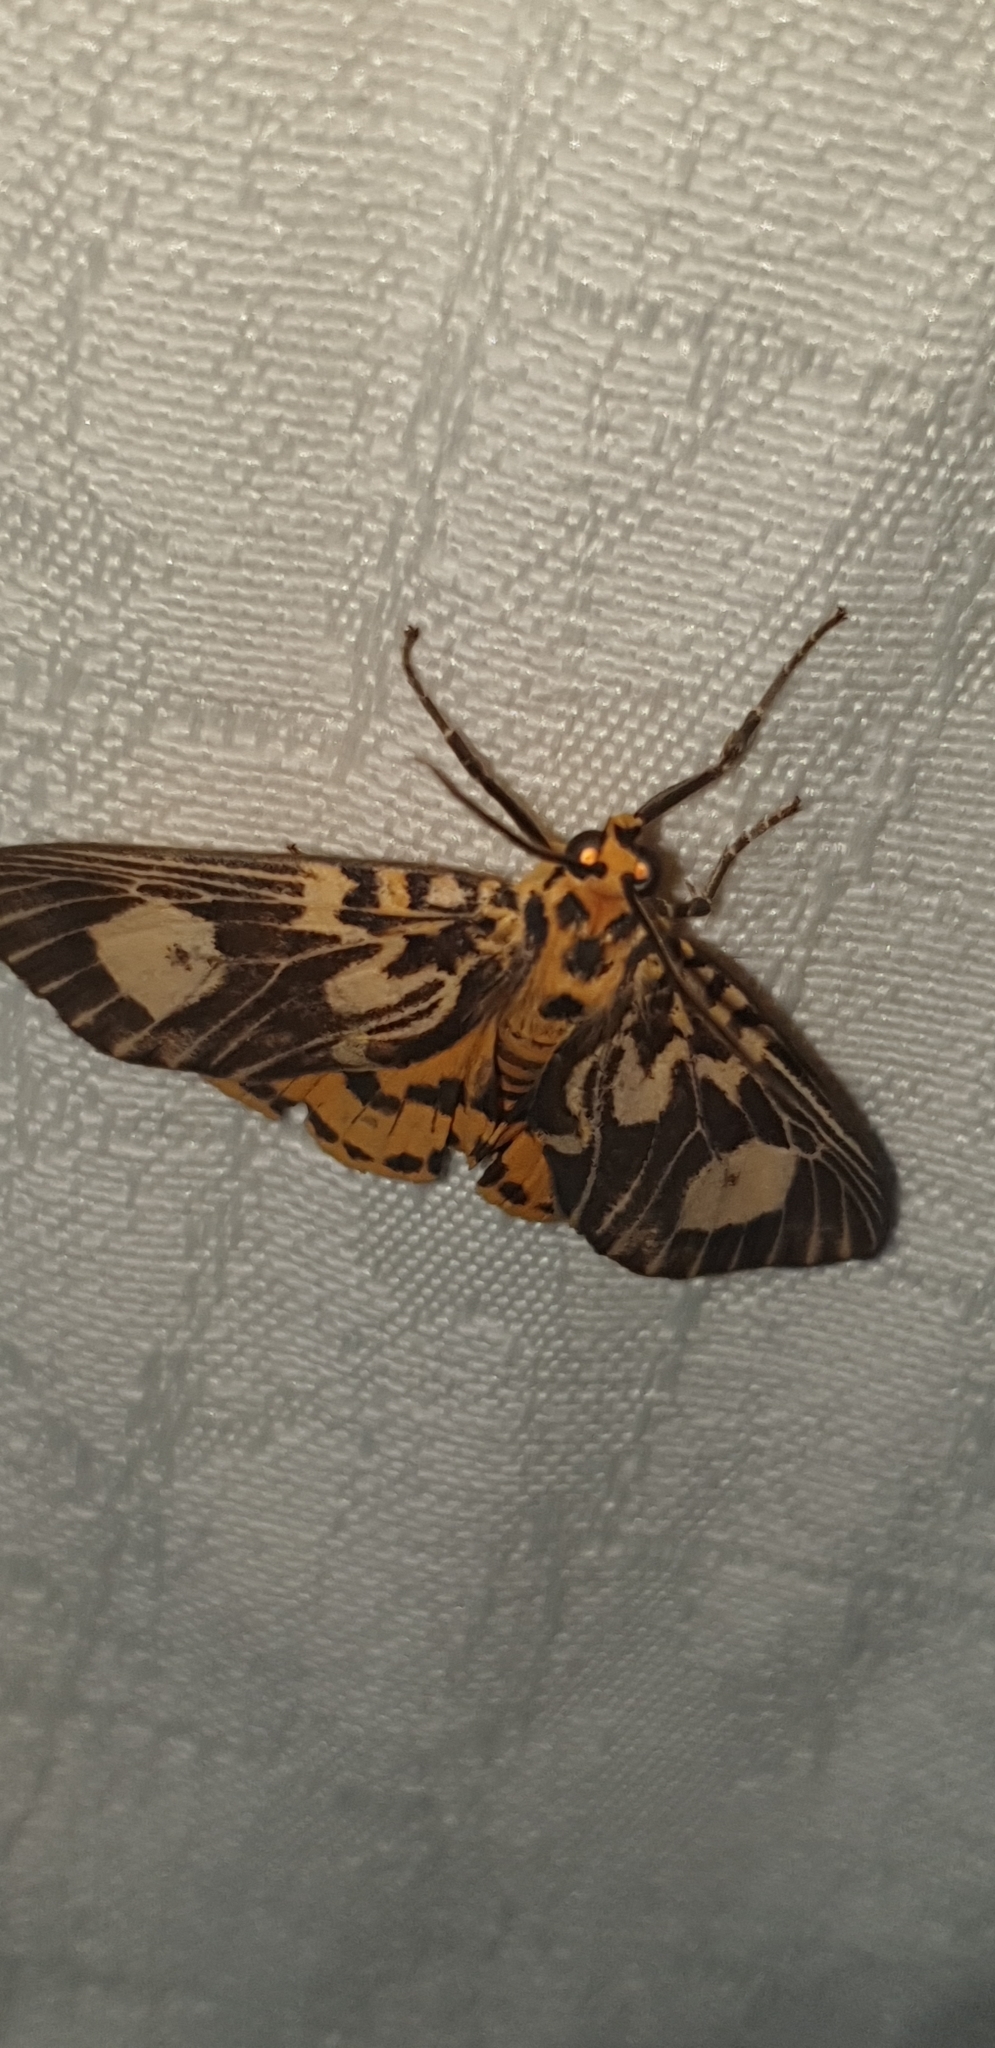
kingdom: Animalia
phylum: Arthropoda
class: Insecta
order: Lepidoptera
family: Erebidae
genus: Asota
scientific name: Asota plagiata
